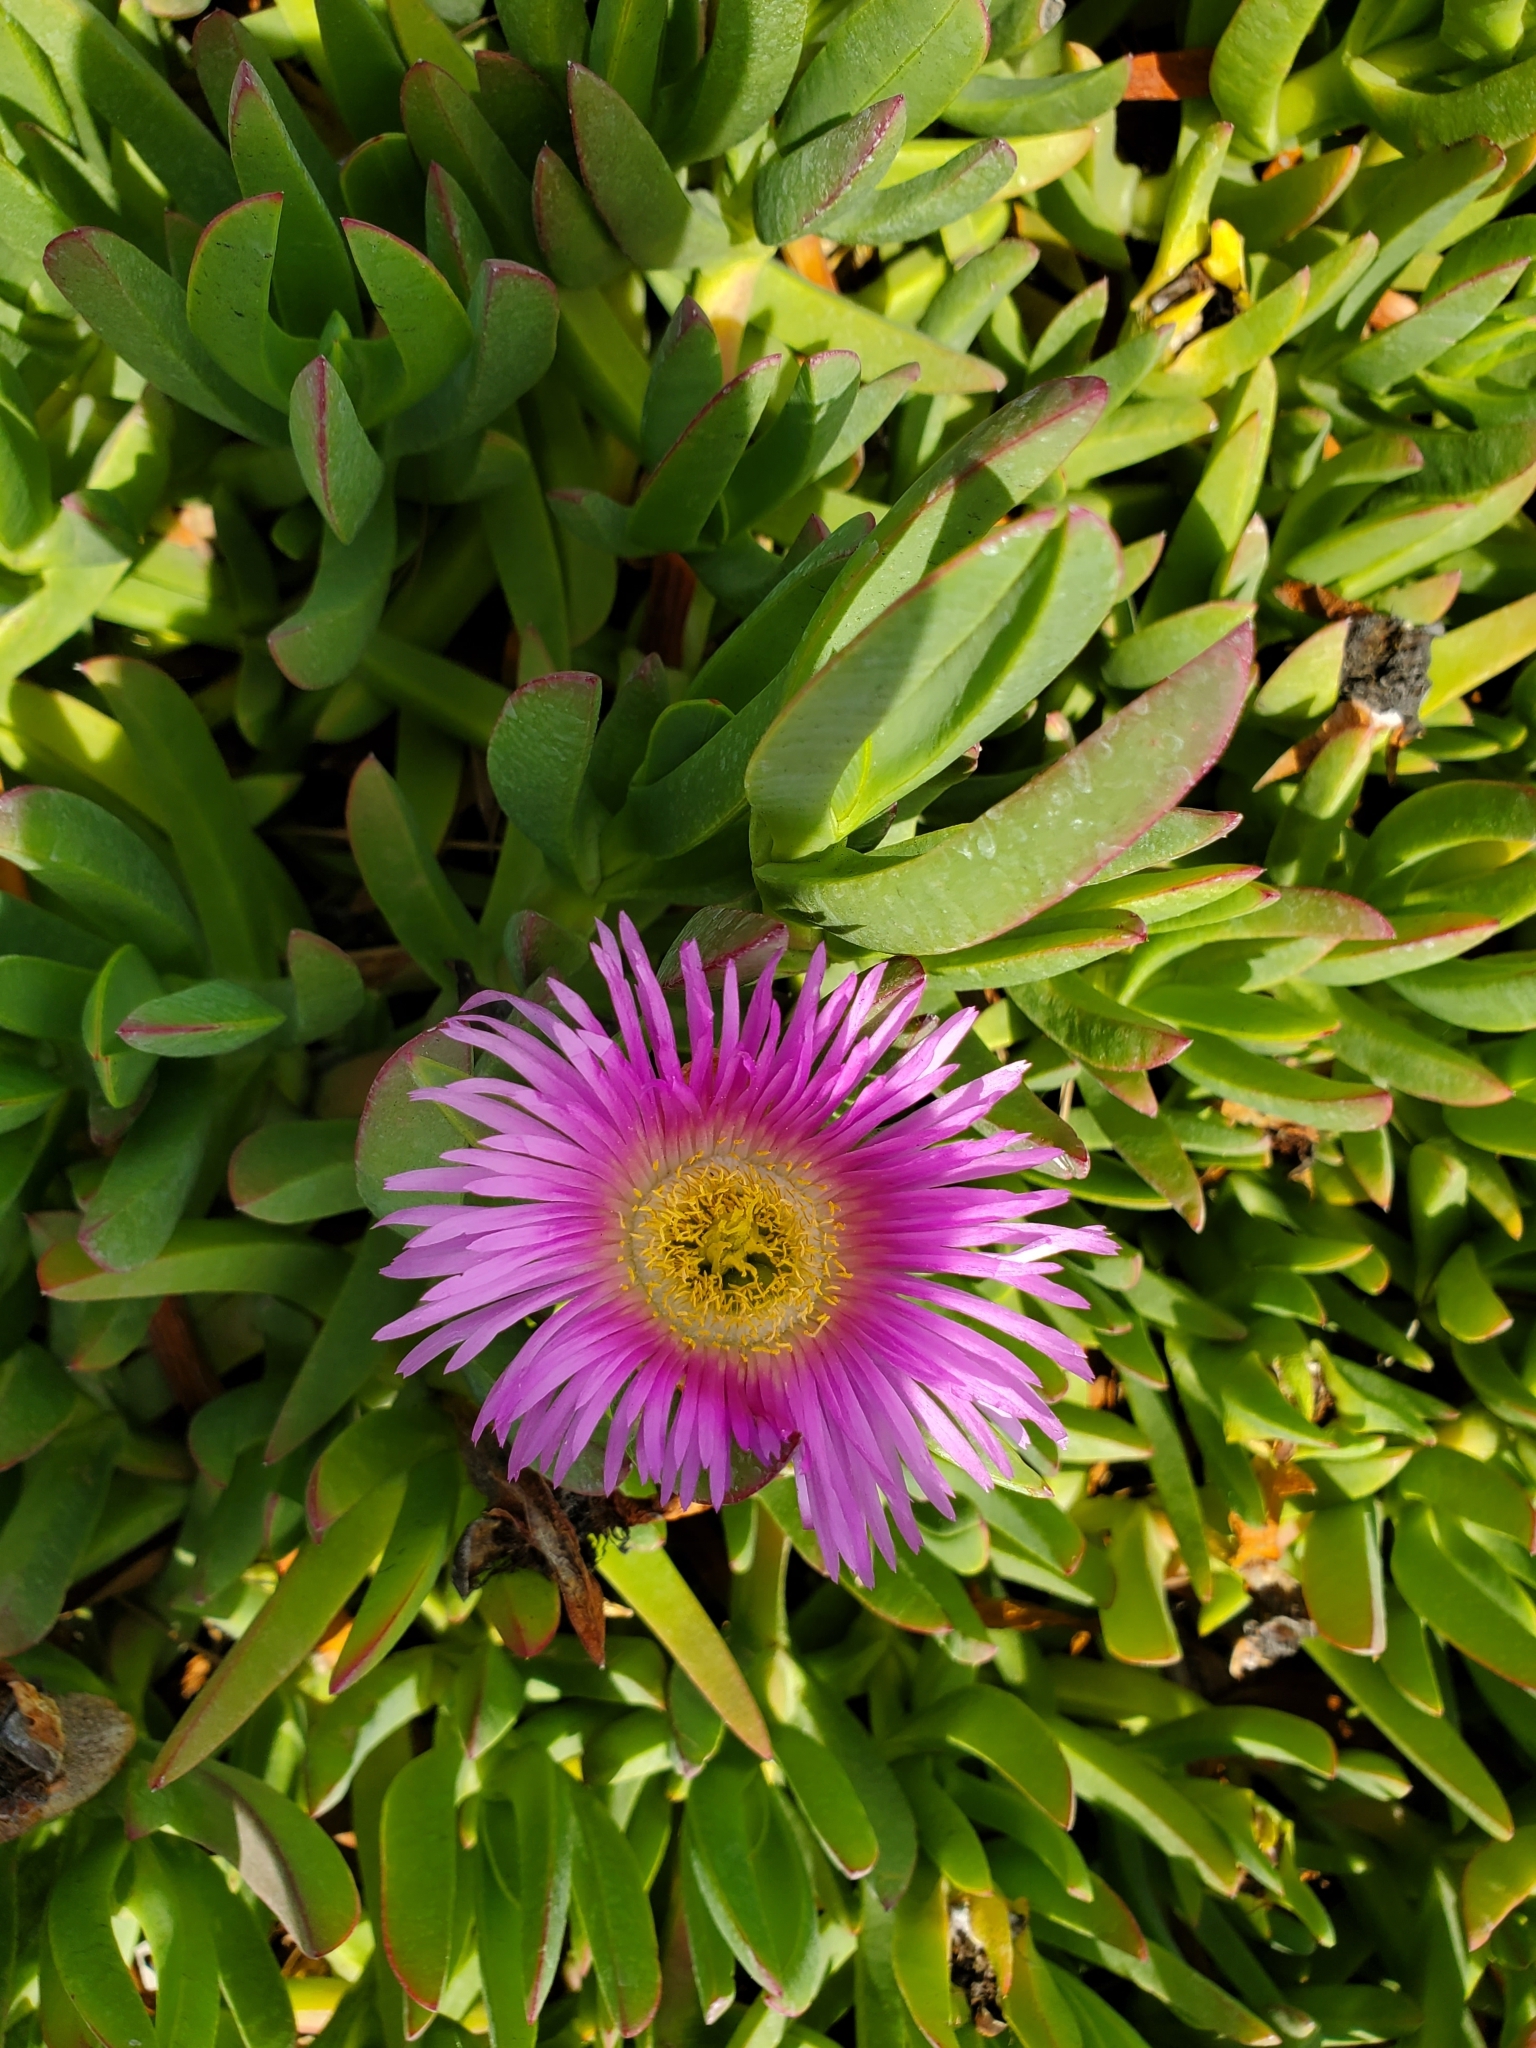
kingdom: Plantae
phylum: Tracheophyta
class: Magnoliopsida
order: Caryophyllales
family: Aizoaceae
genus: Carpobrotus
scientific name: Carpobrotus chilensis
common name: Sea fig
